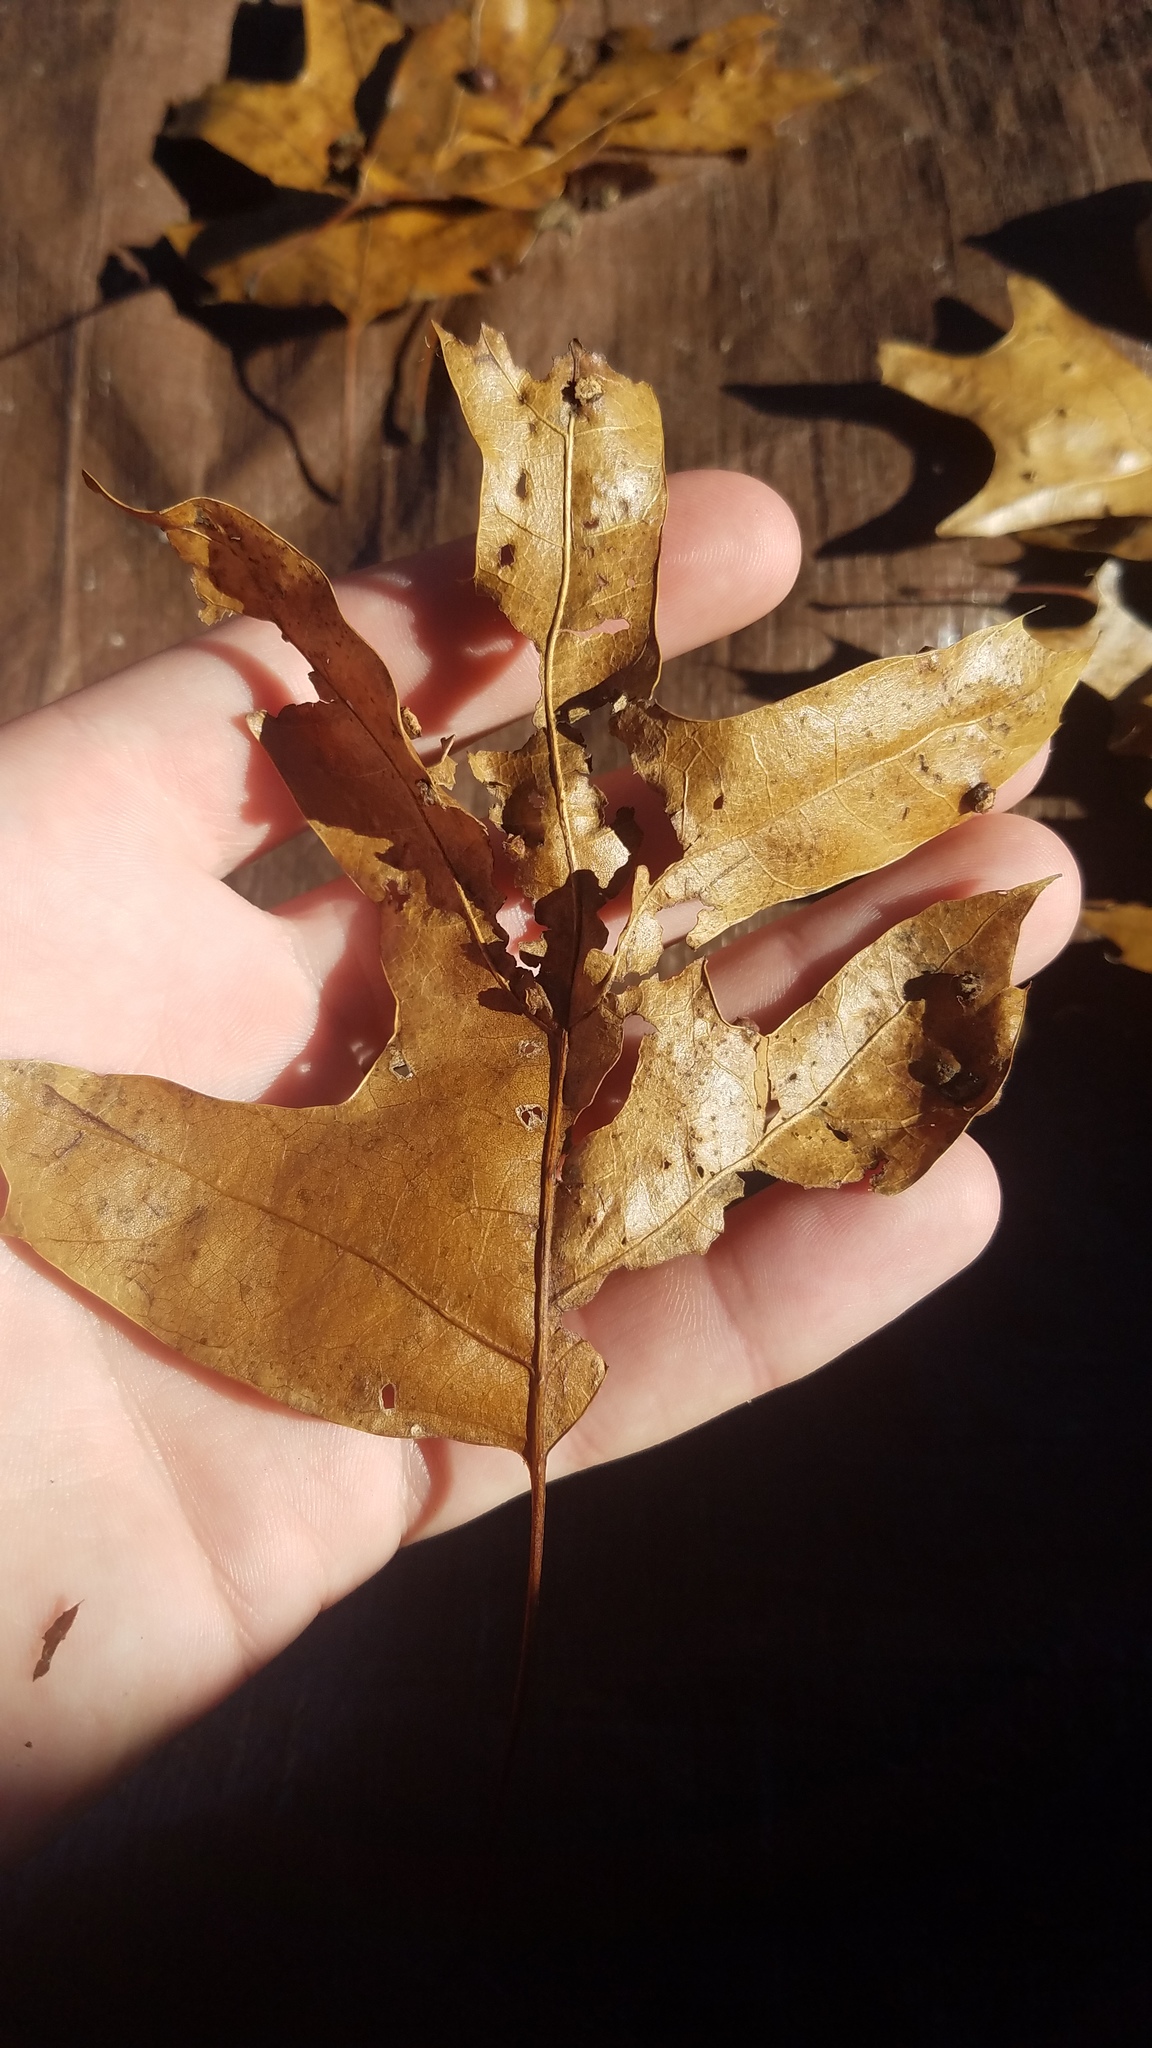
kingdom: Animalia
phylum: Arthropoda
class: Insecta
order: Diptera
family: Cecidomyiidae
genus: Polystepha
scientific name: Polystepha pilulae
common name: Oak leaf gall midge
